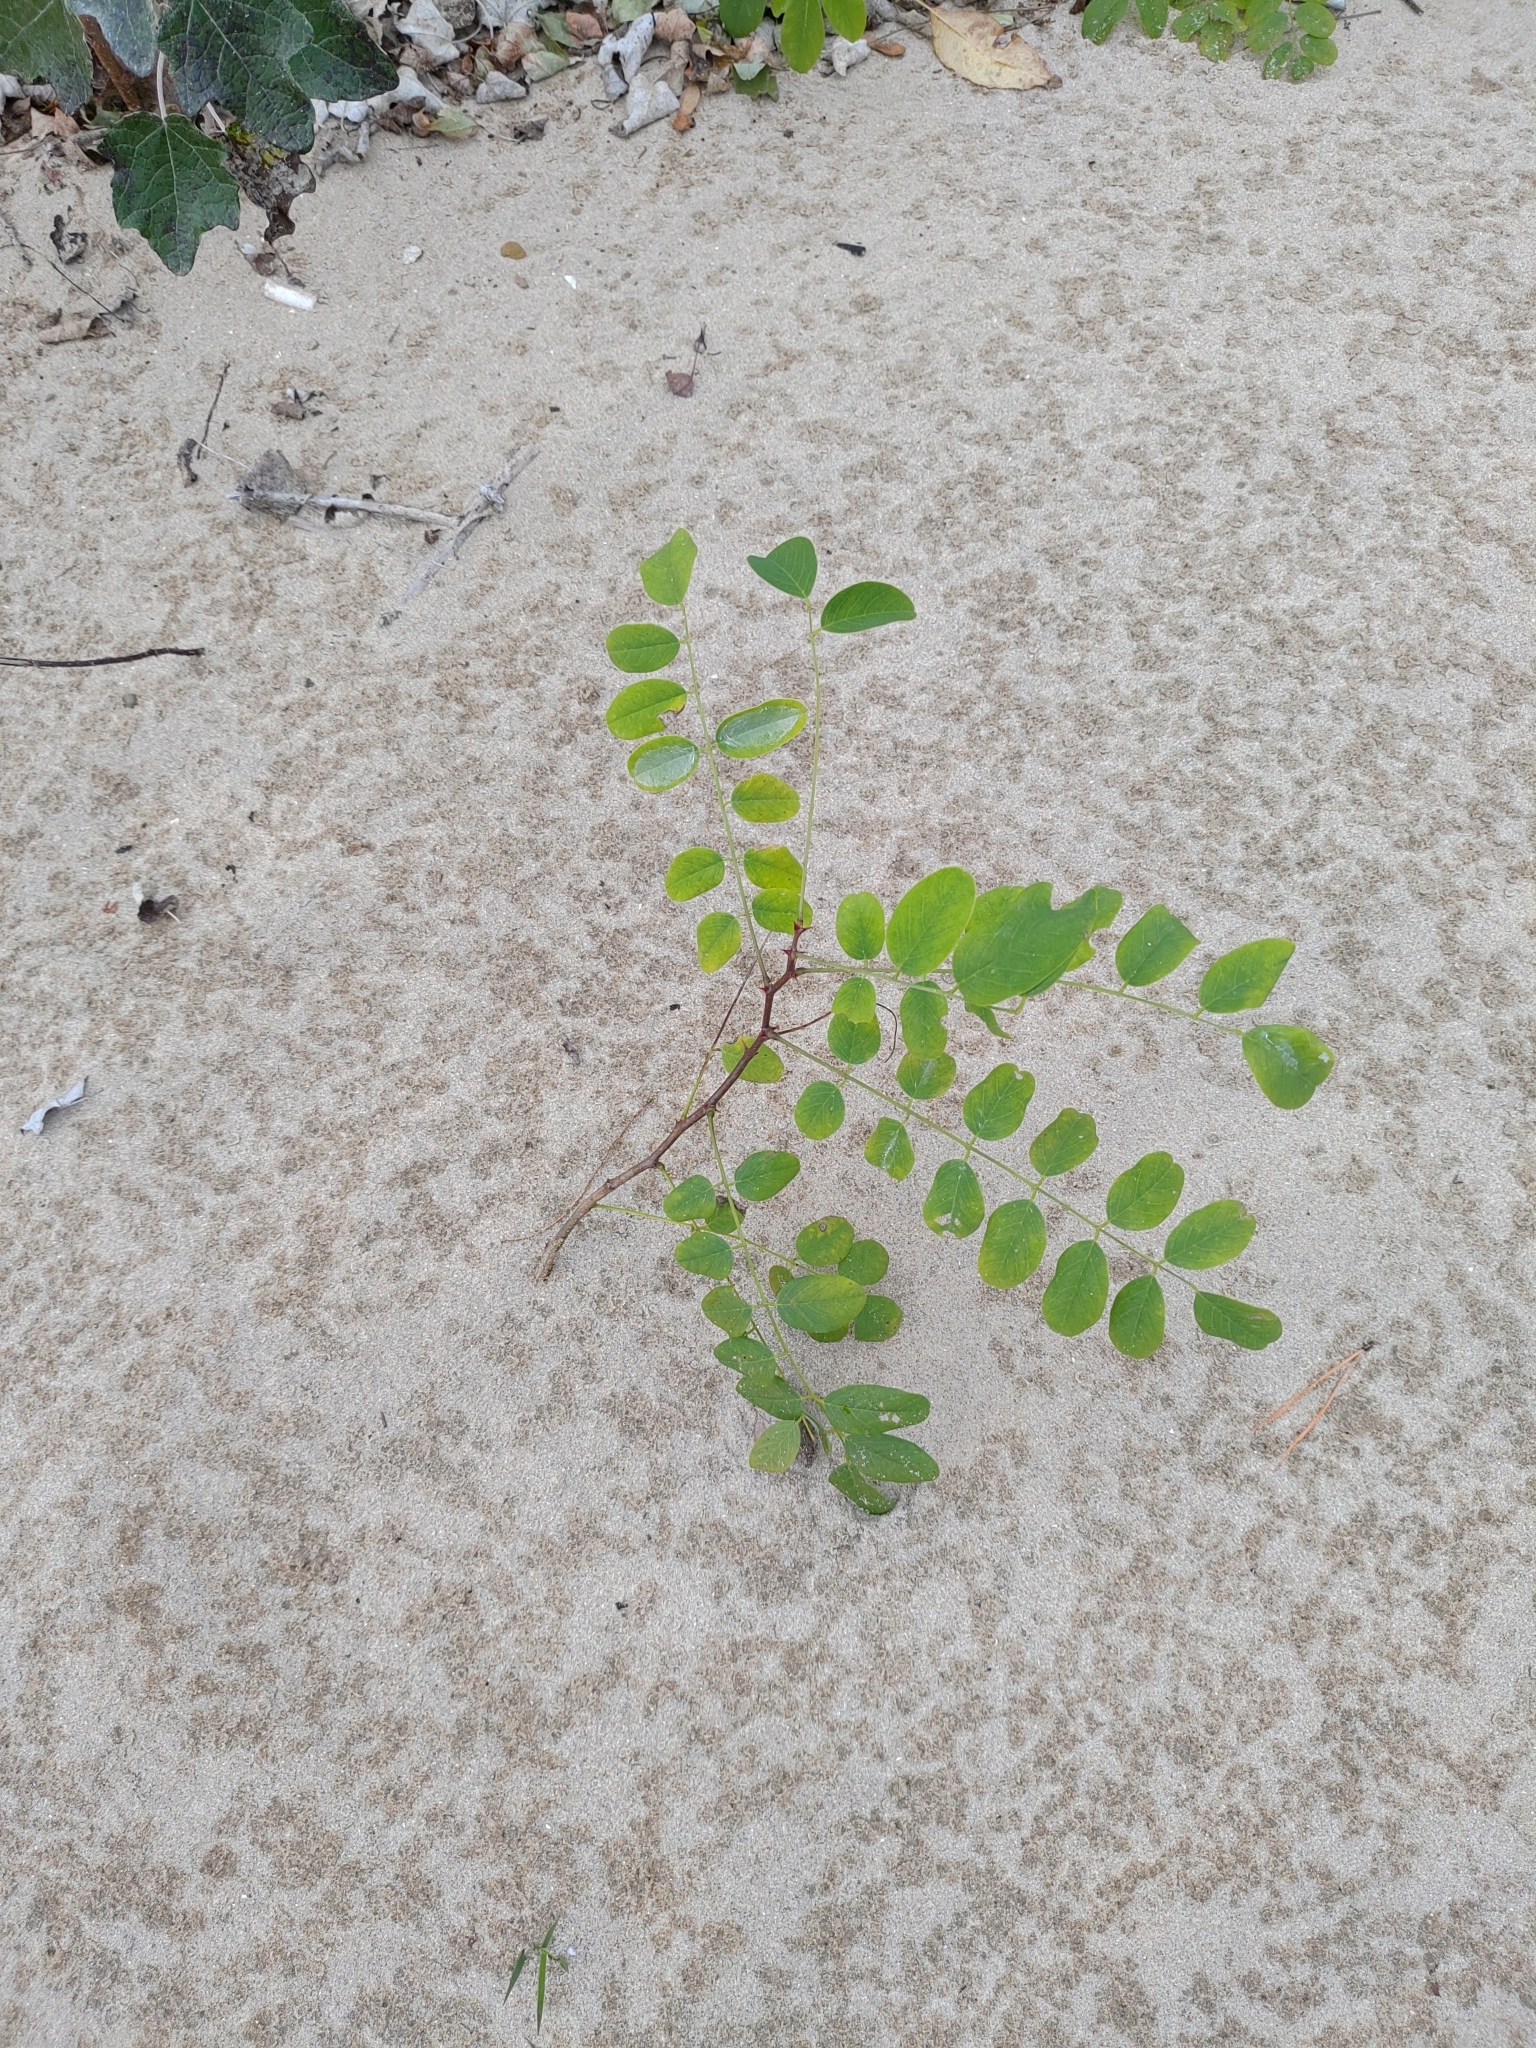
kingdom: Plantae
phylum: Tracheophyta
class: Magnoliopsida
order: Fabales
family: Fabaceae
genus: Robinia
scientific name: Robinia pseudoacacia
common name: Black locust
